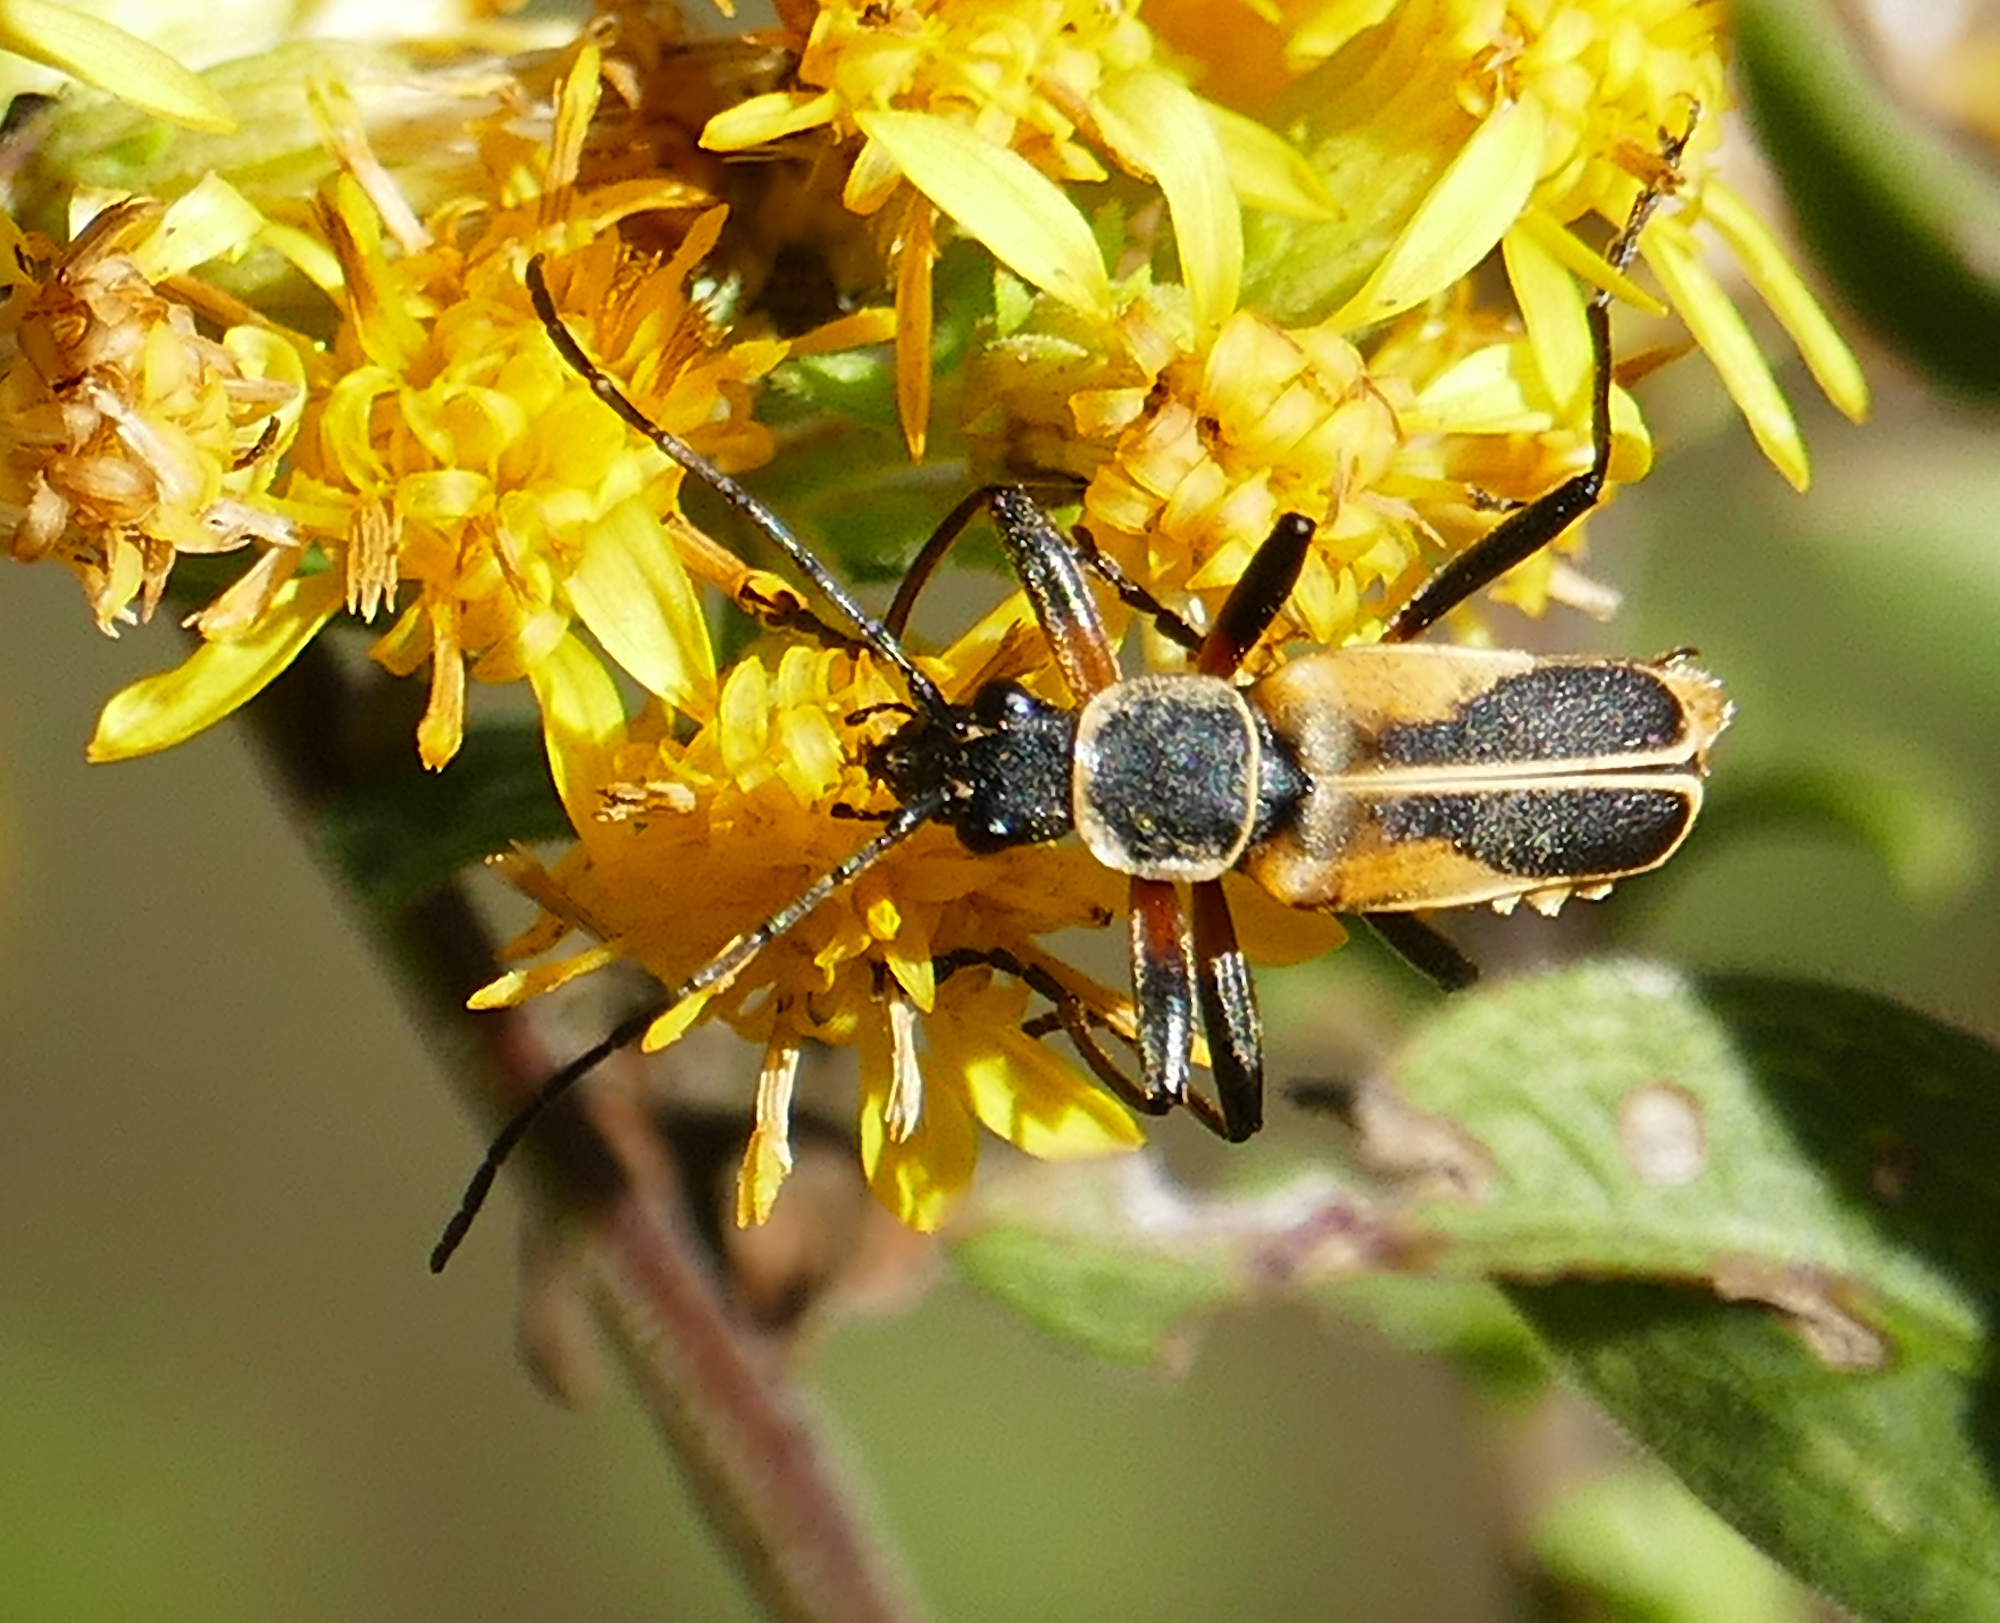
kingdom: Animalia
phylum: Arthropoda
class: Insecta
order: Coleoptera
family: Cantharidae
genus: Chauliognathus
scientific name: Chauliognathus opacus
